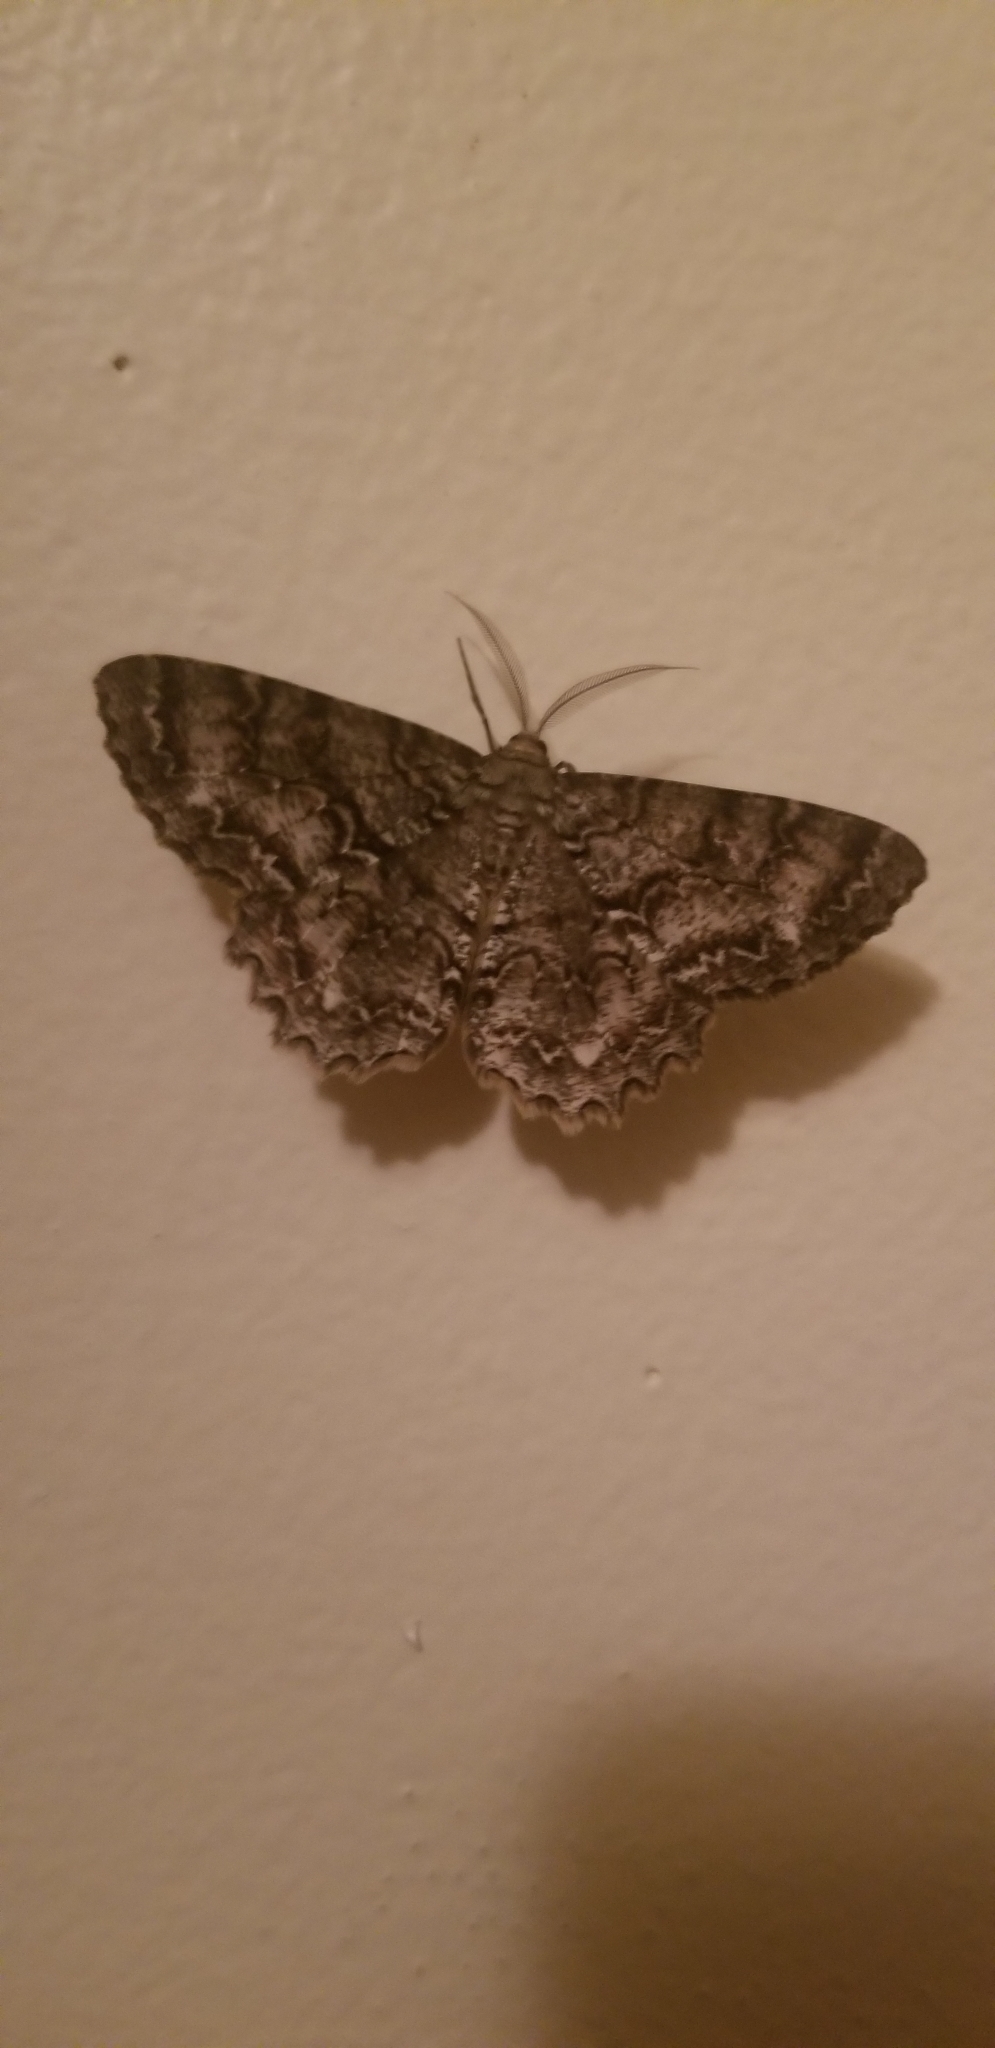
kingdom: Animalia
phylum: Arthropoda
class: Insecta
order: Lepidoptera
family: Geometridae
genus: Epimecis
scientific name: Epimecis hortaria
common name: Tulip-tree beauty
